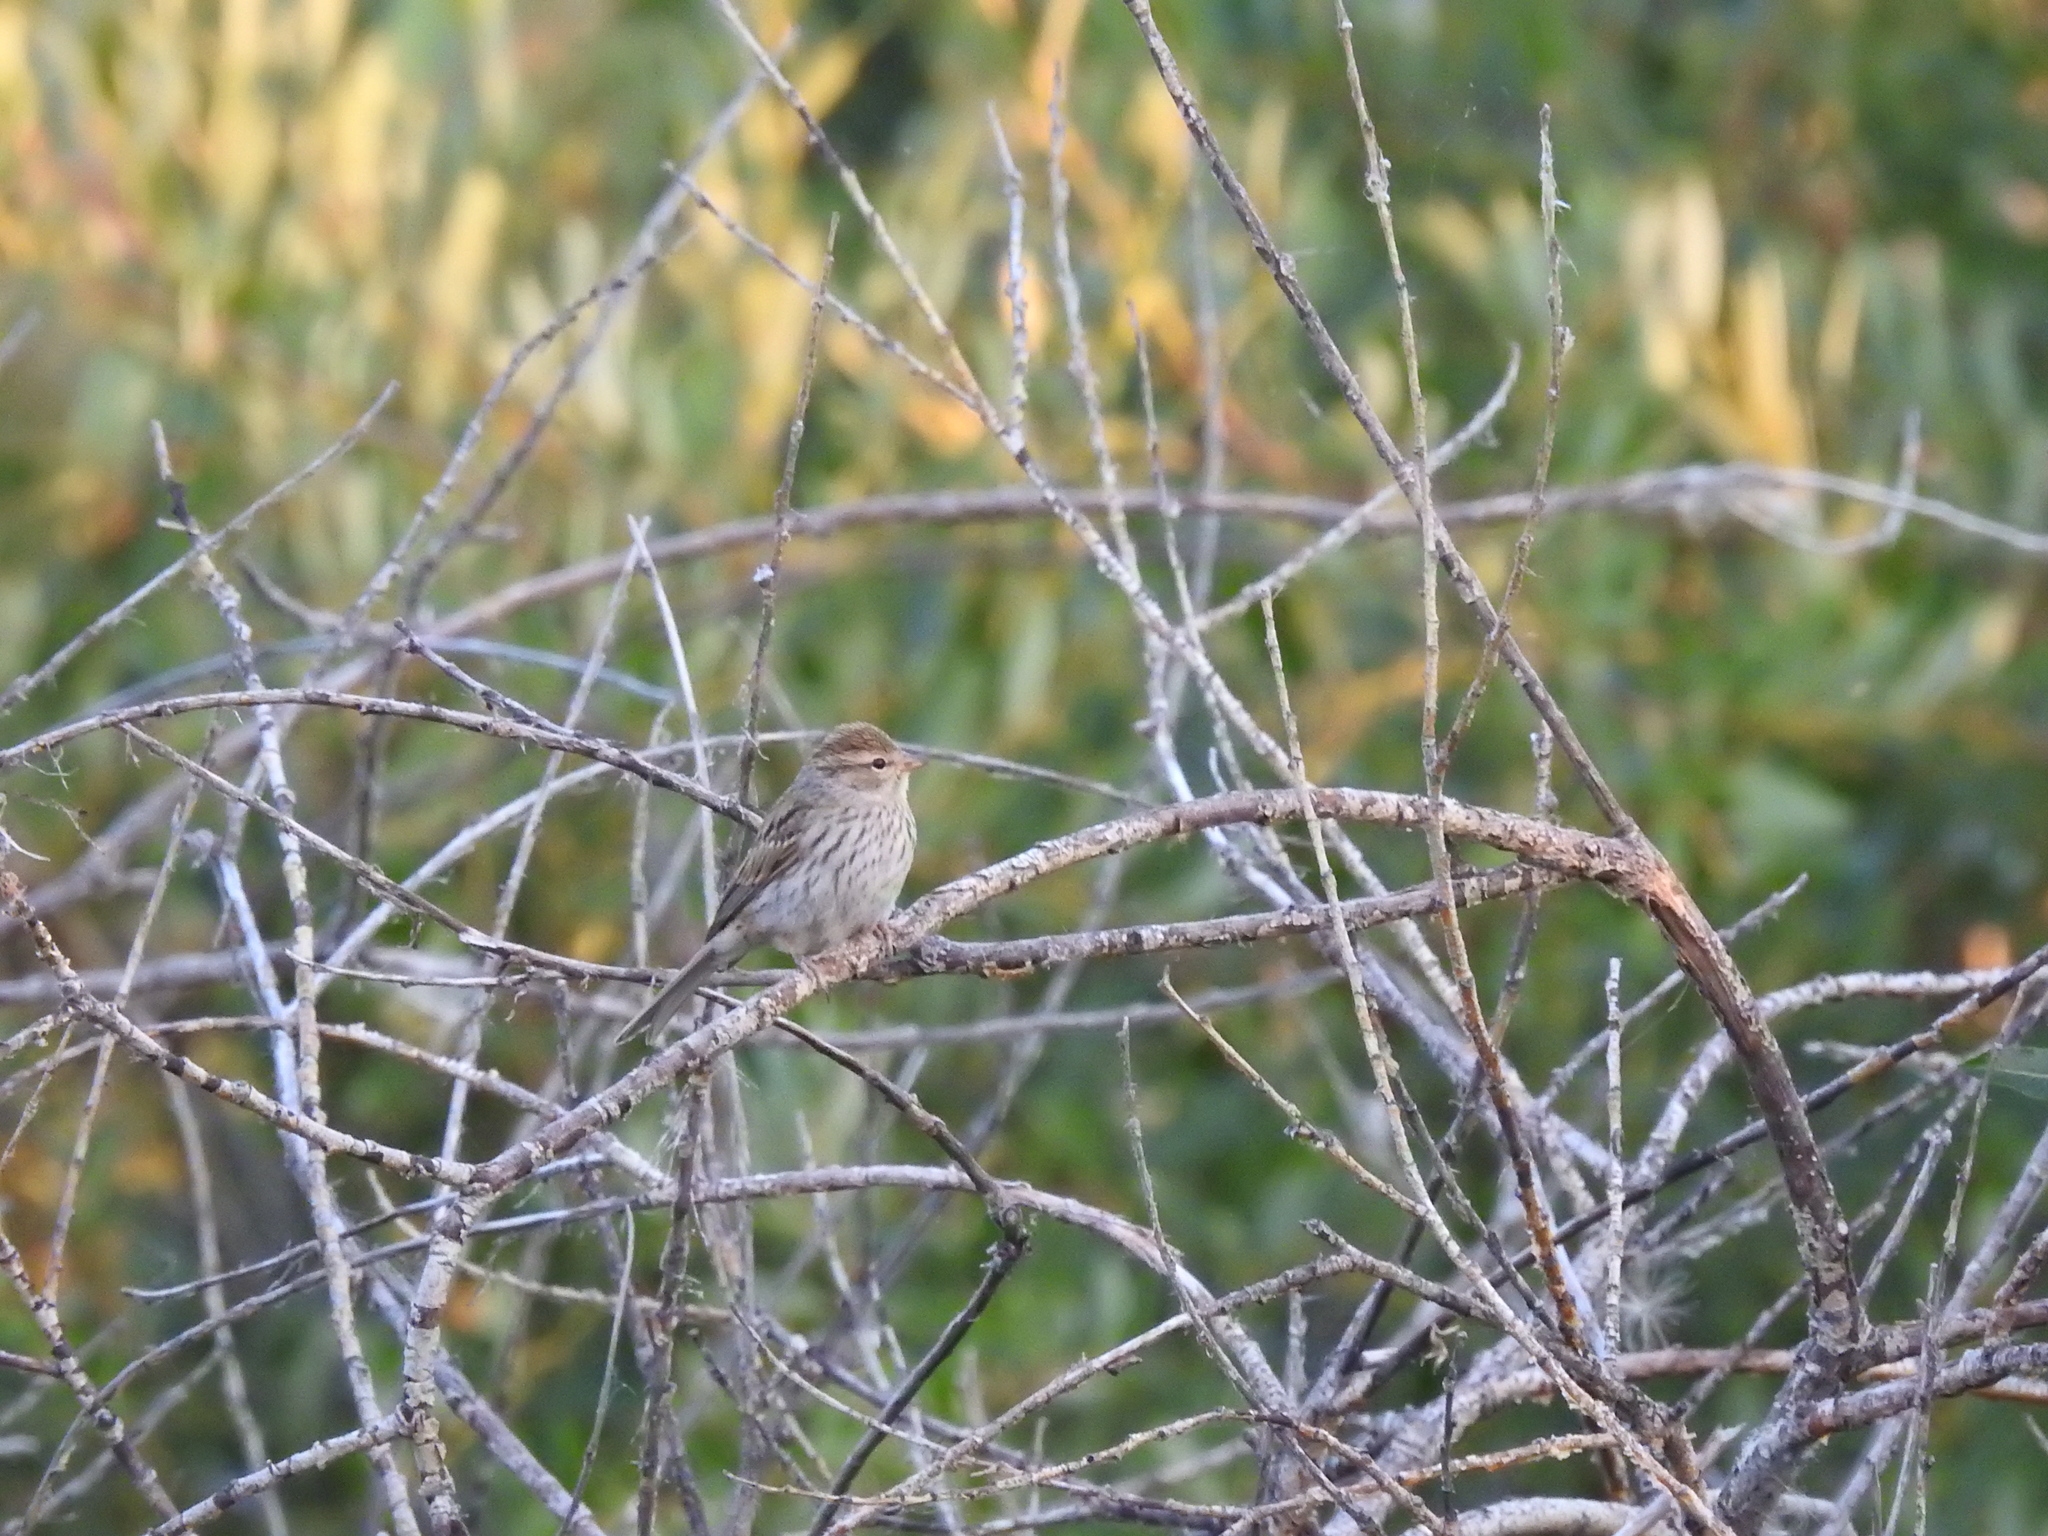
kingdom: Animalia
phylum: Chordata
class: Aves
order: Passeriformes
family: Passerellidae
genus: Spizella
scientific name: Spizella passerina
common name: Chipping sparrow
